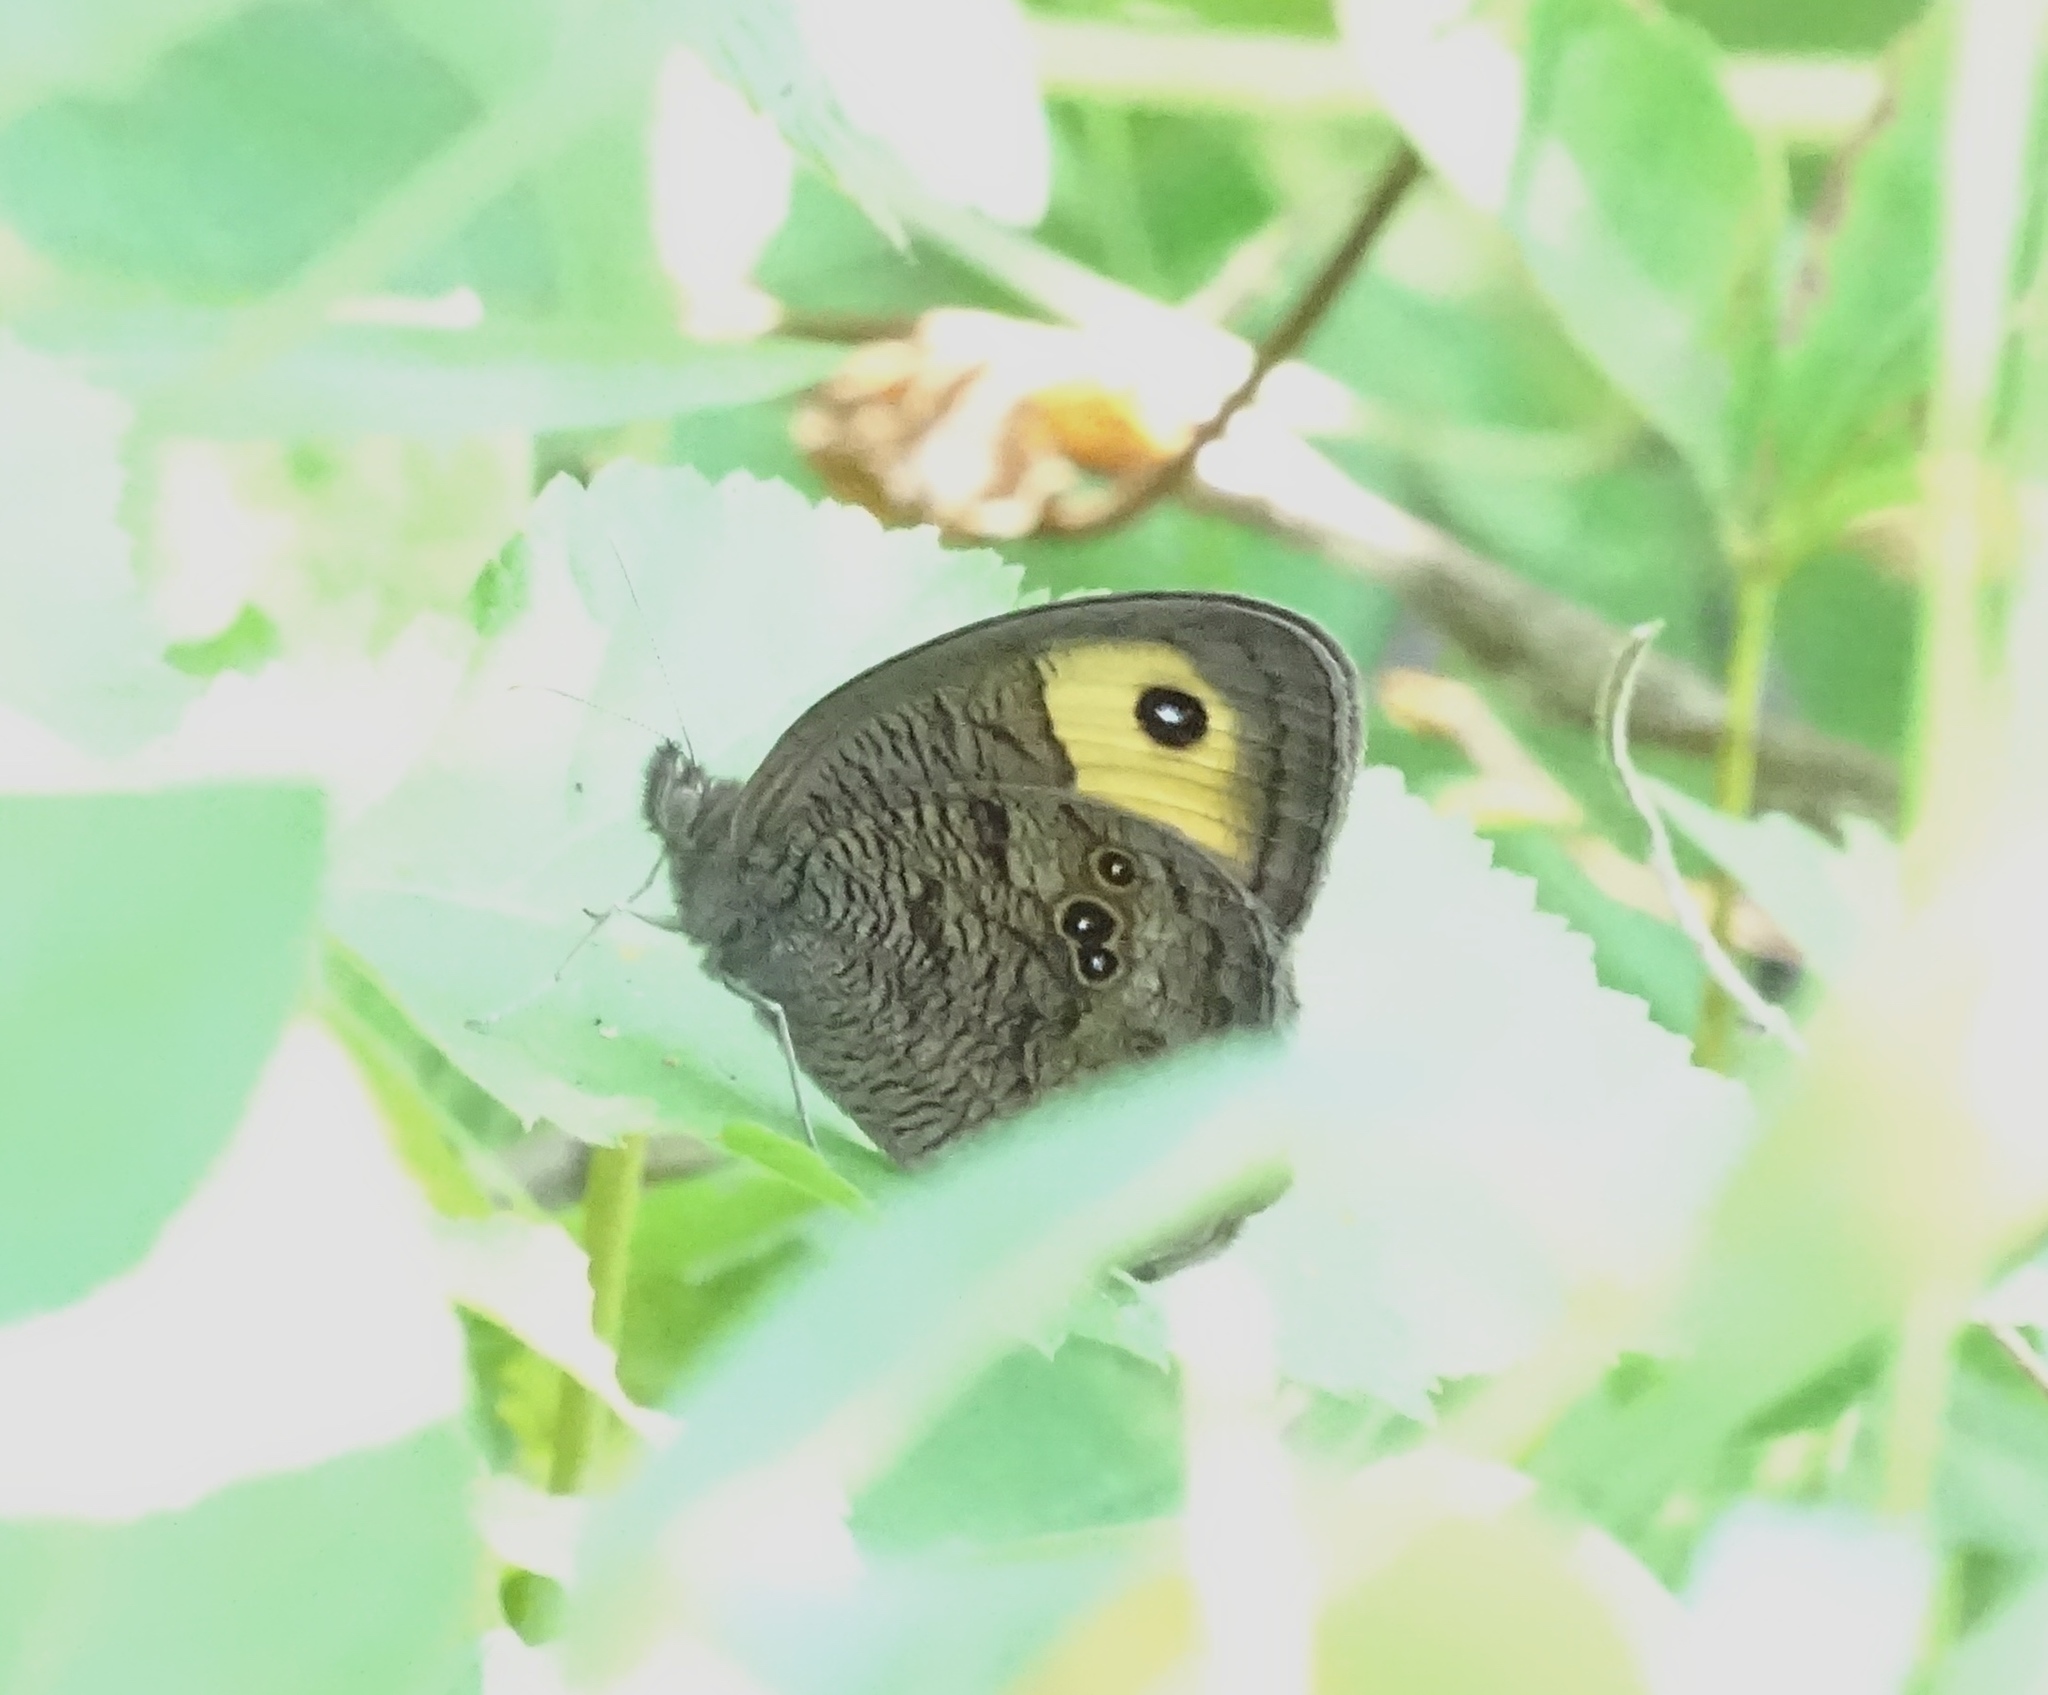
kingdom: Animalia
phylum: Arthropoda
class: Insecta
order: Lepidoptera
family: Nymphalidae
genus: Cercyonis
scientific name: Cercyonis pegala
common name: Common wood-nymph
